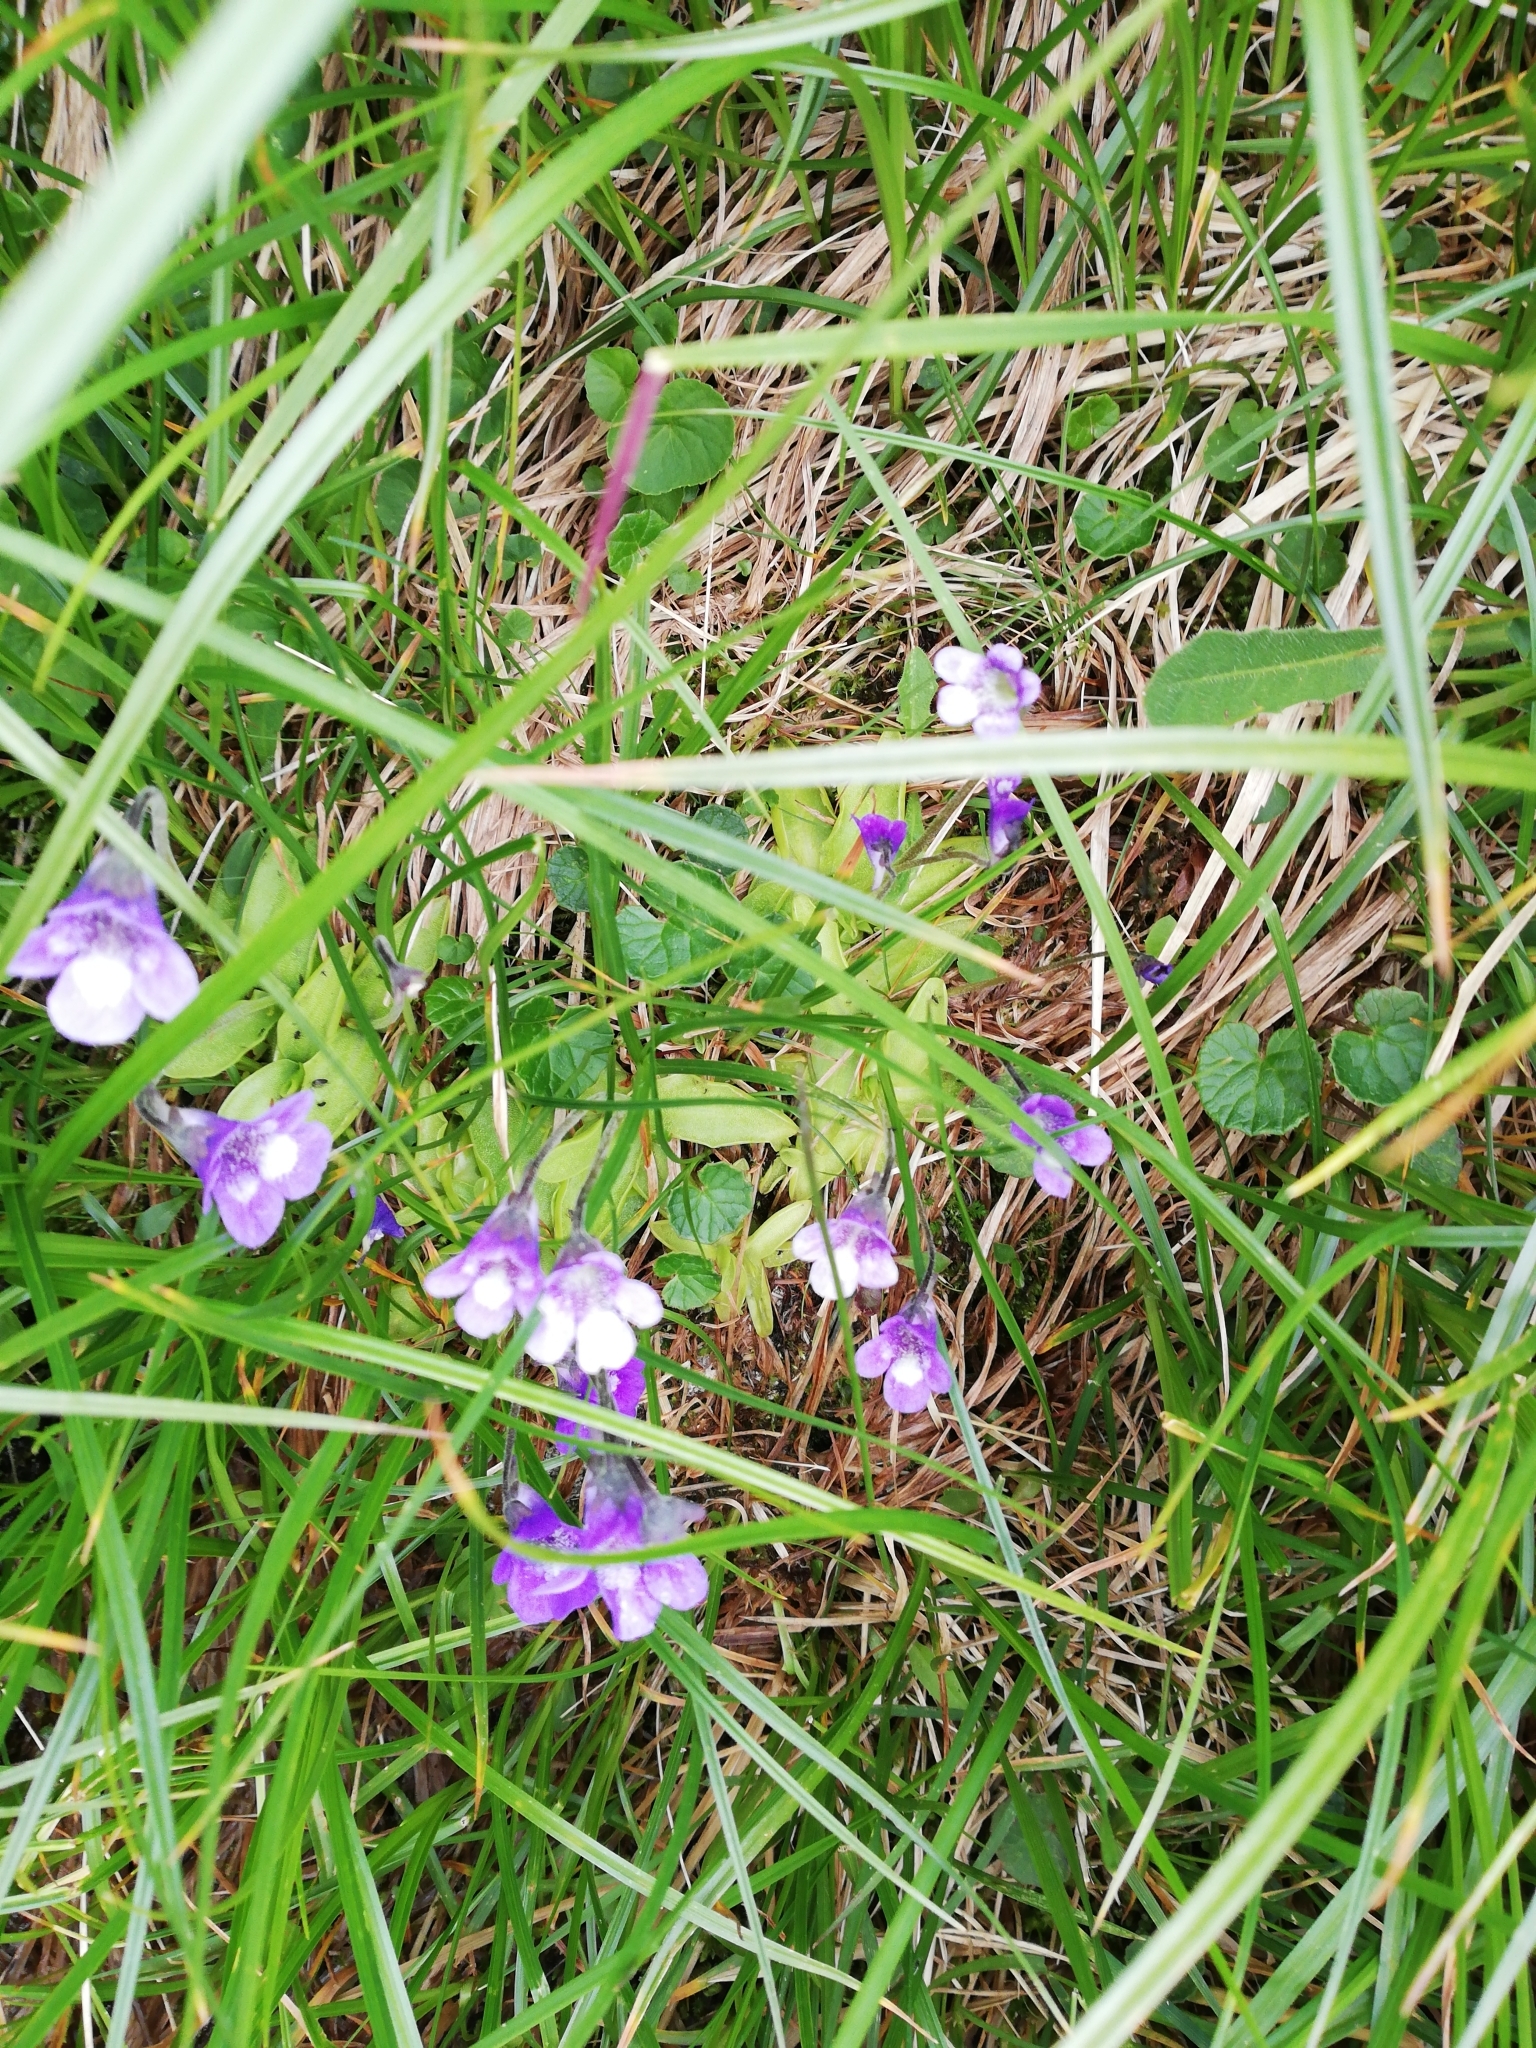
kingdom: Plantae
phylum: Tracheophyta
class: Magnoliopsida
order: Lamiales
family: Lentibulariaceae
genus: Pinguicula
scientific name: Pinguicula leptoceras
